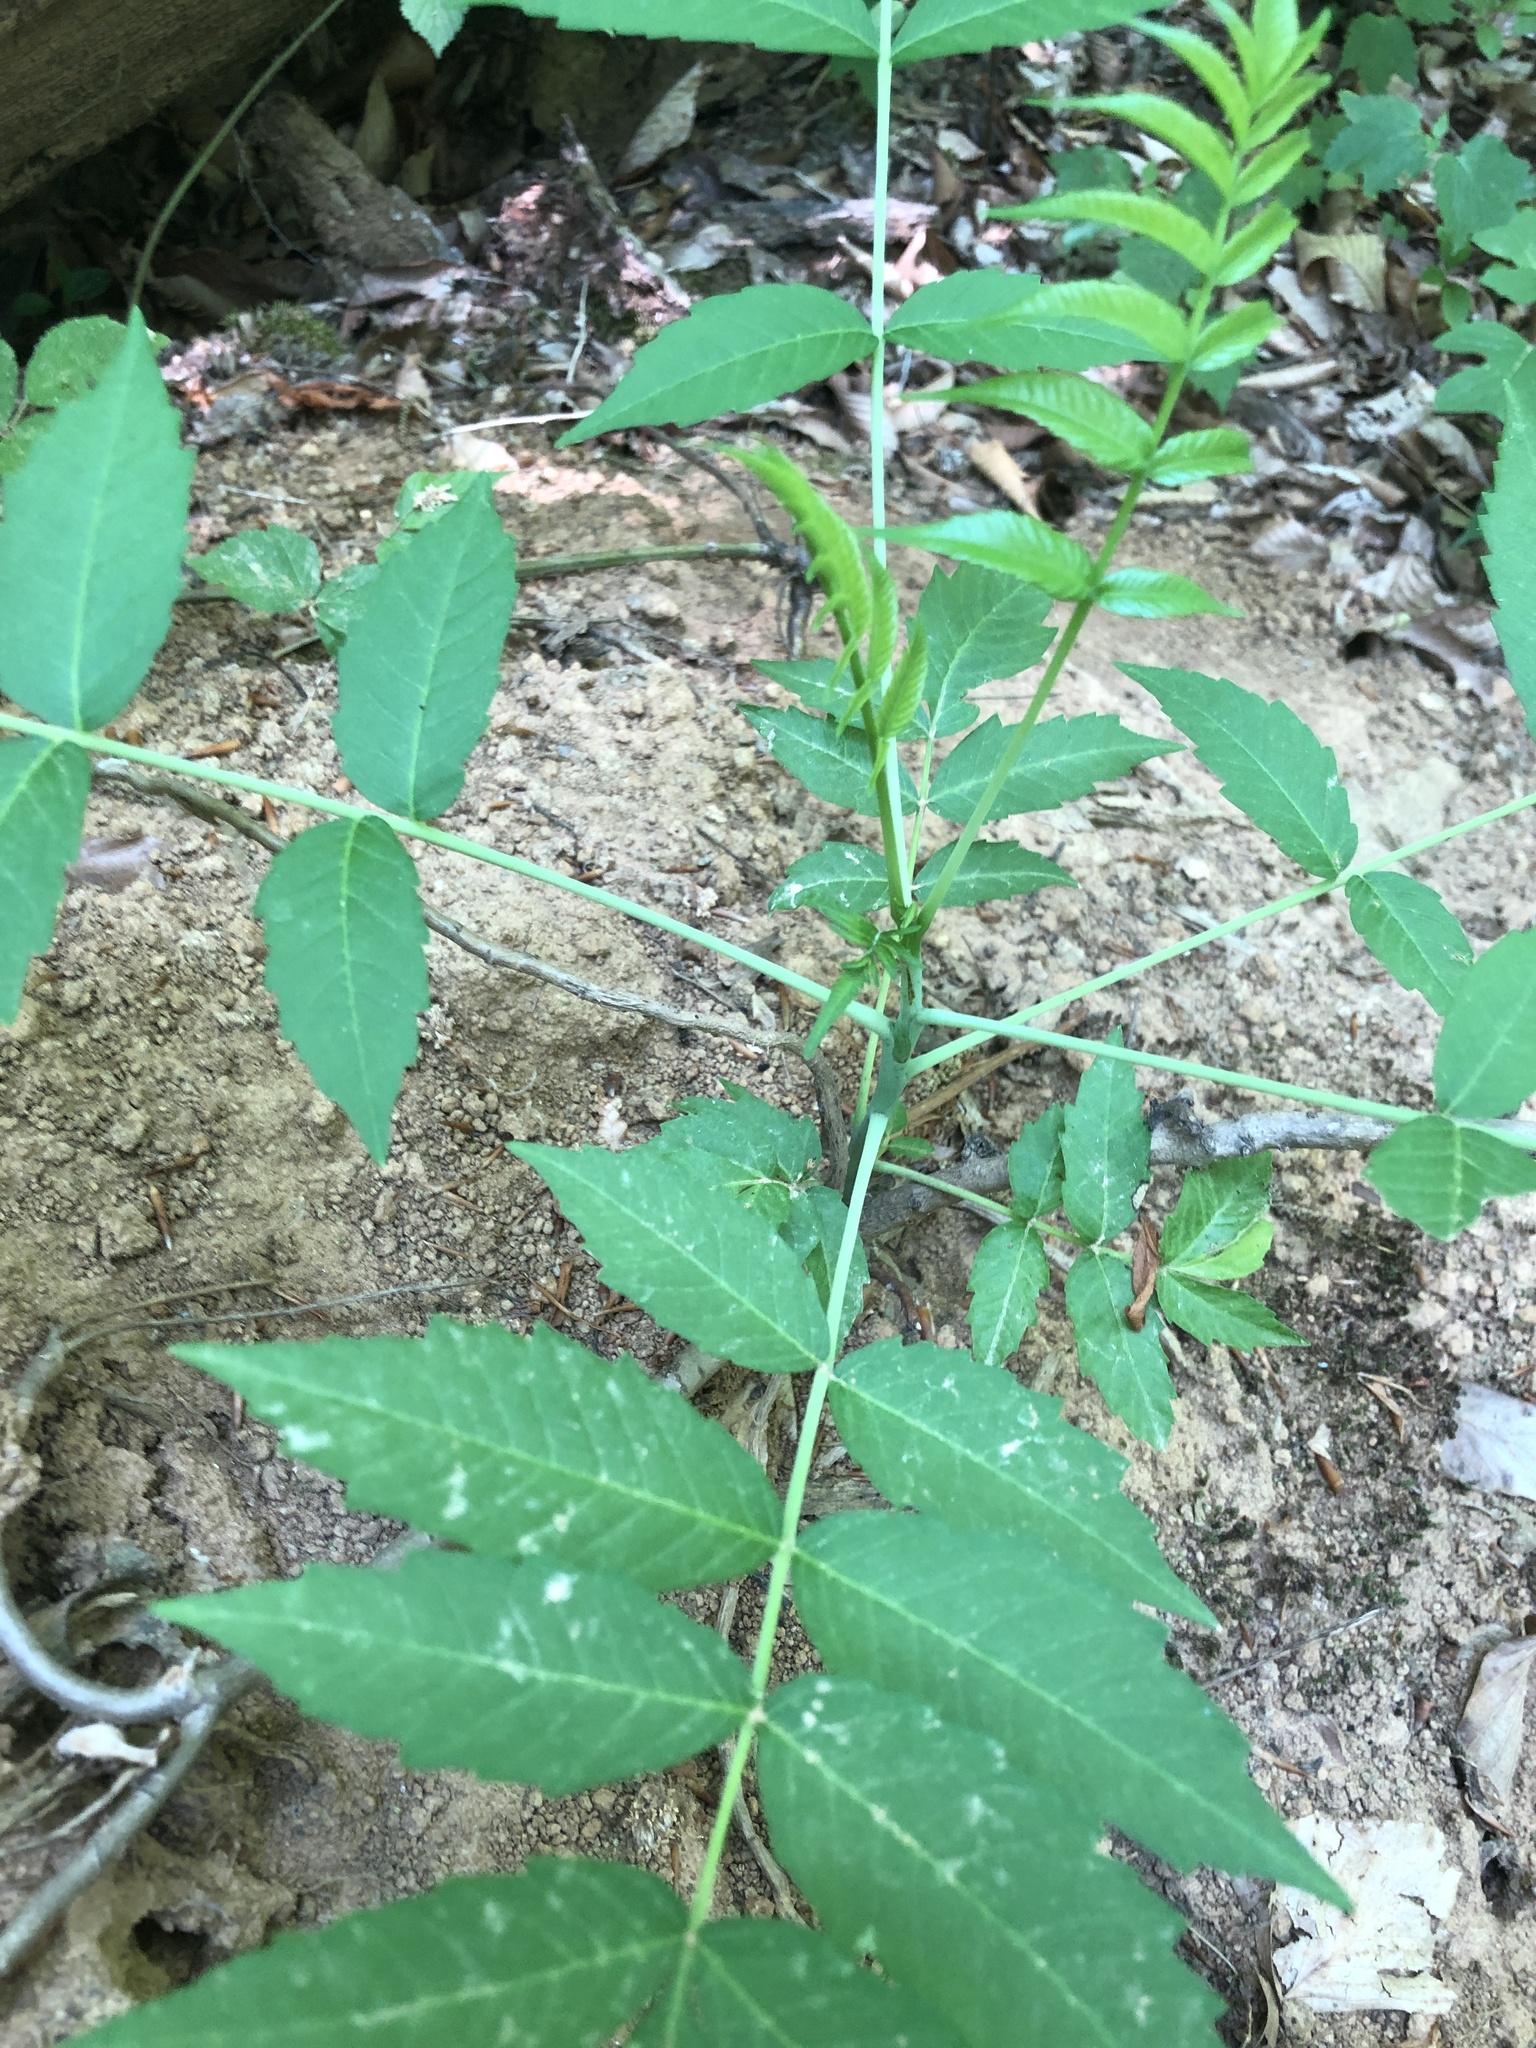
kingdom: Plantae
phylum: Tracheophyta
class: Magnoliopsida
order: Sapindales
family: Anacardiaceae
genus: Rhus
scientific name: Rhus glabra
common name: Scarlet sumac
